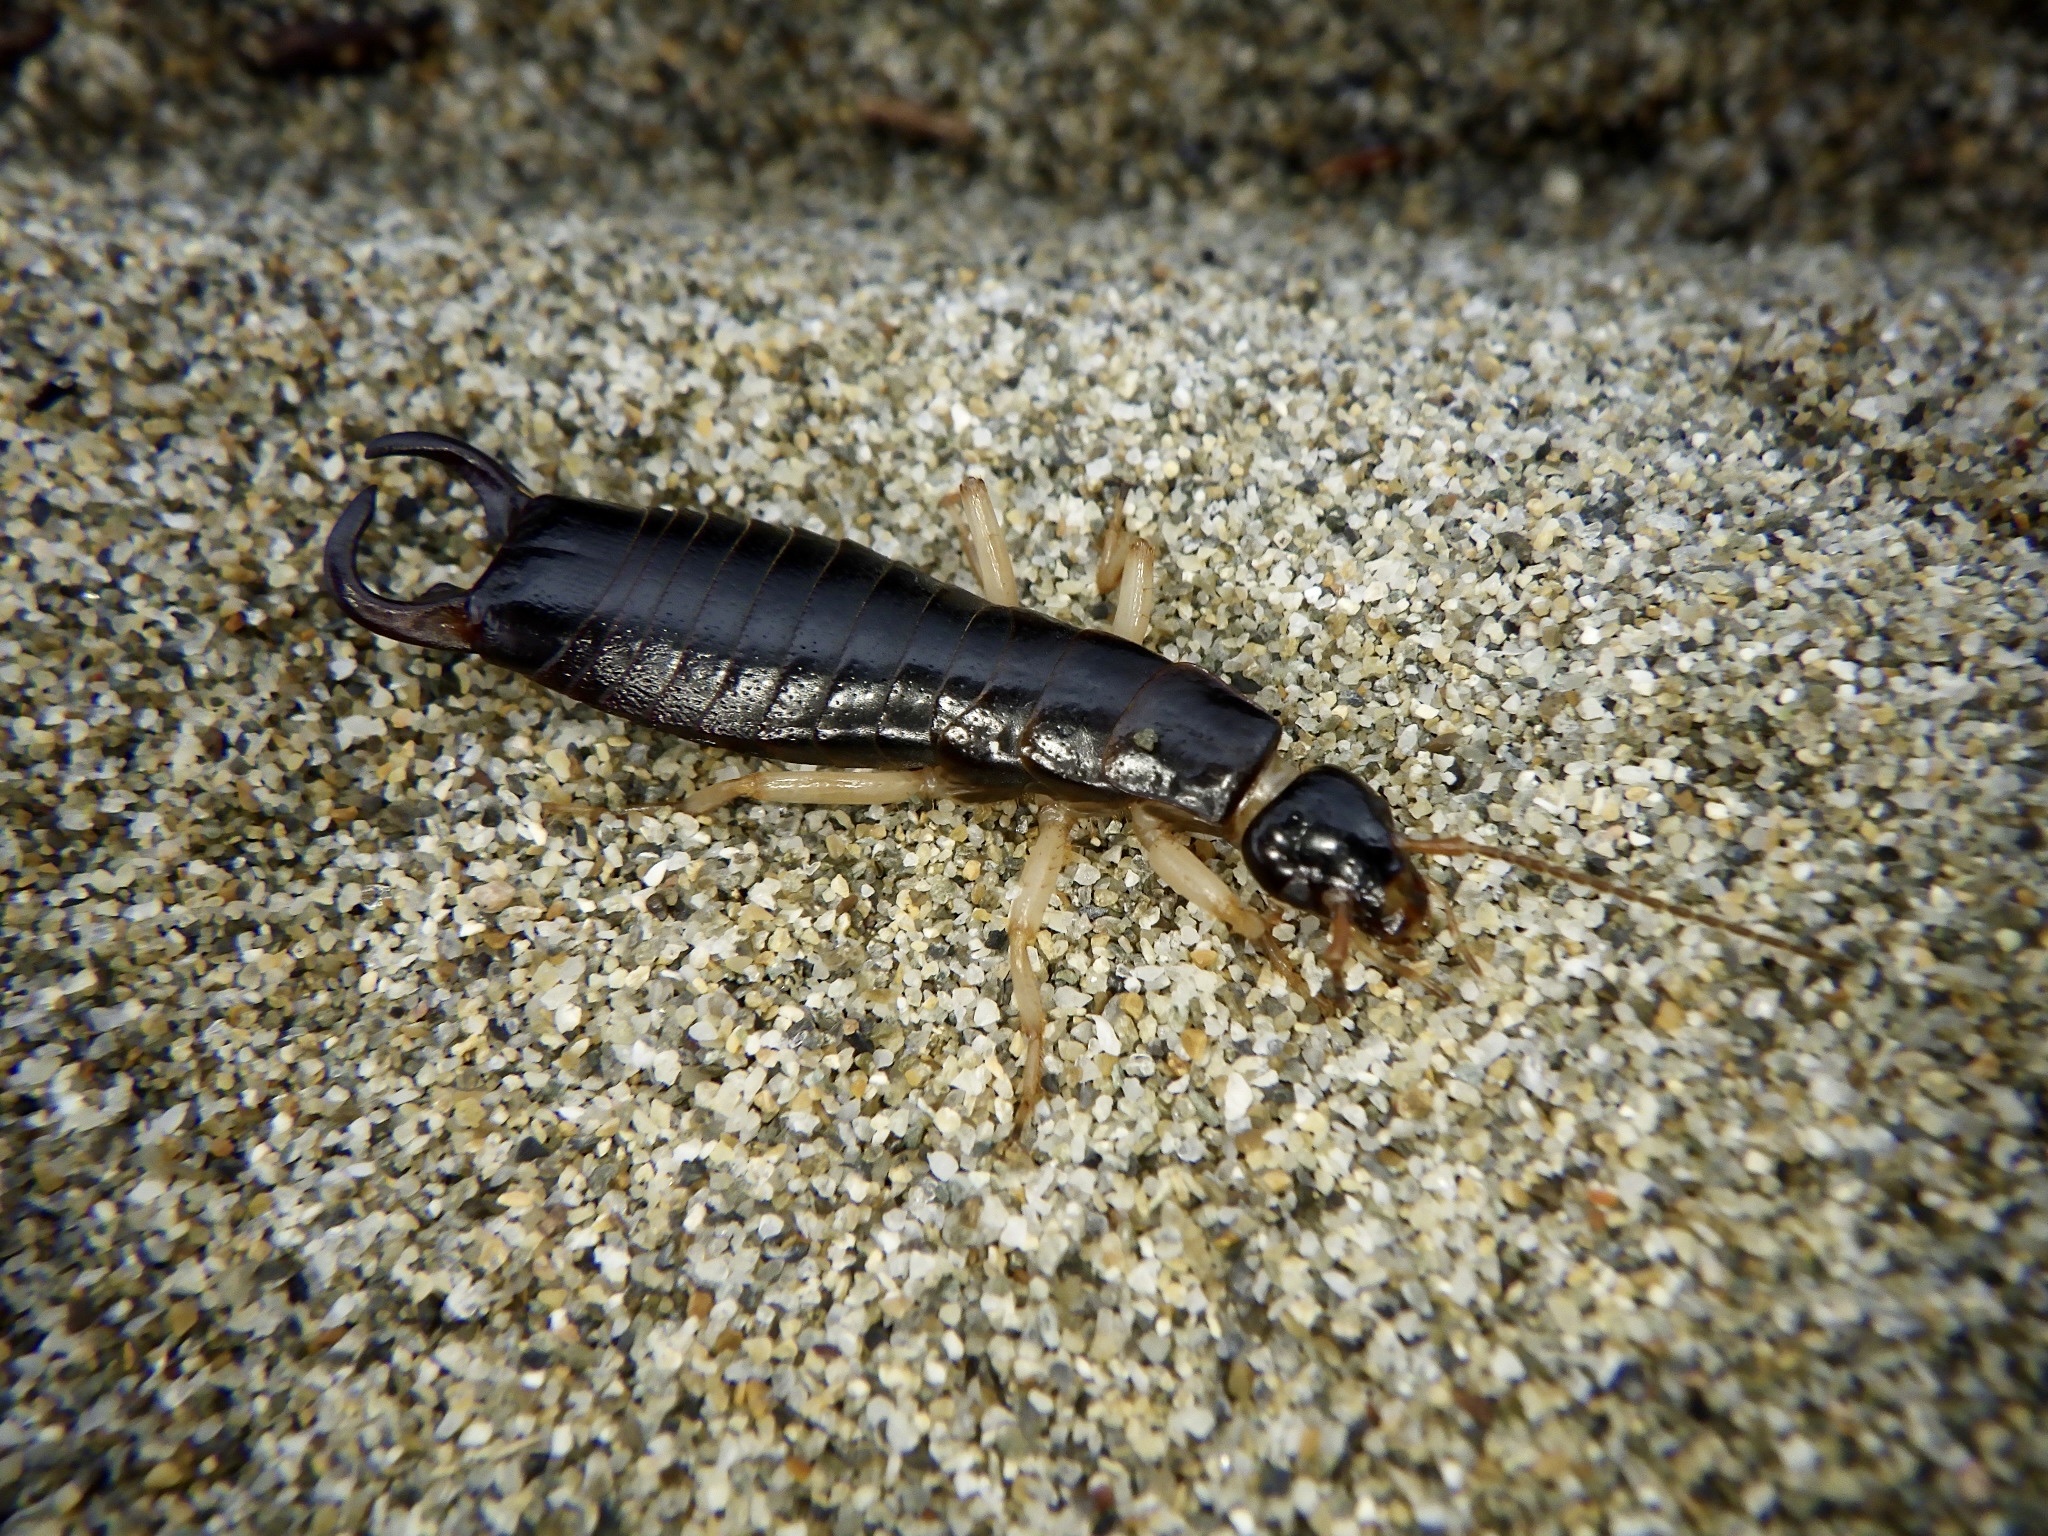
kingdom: Animalia
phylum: Arthropoda
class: Insecta
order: Dermaptera
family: Anisolabididae
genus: Anisolabis
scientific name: Anisolabis maritima
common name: Maritime earwig
